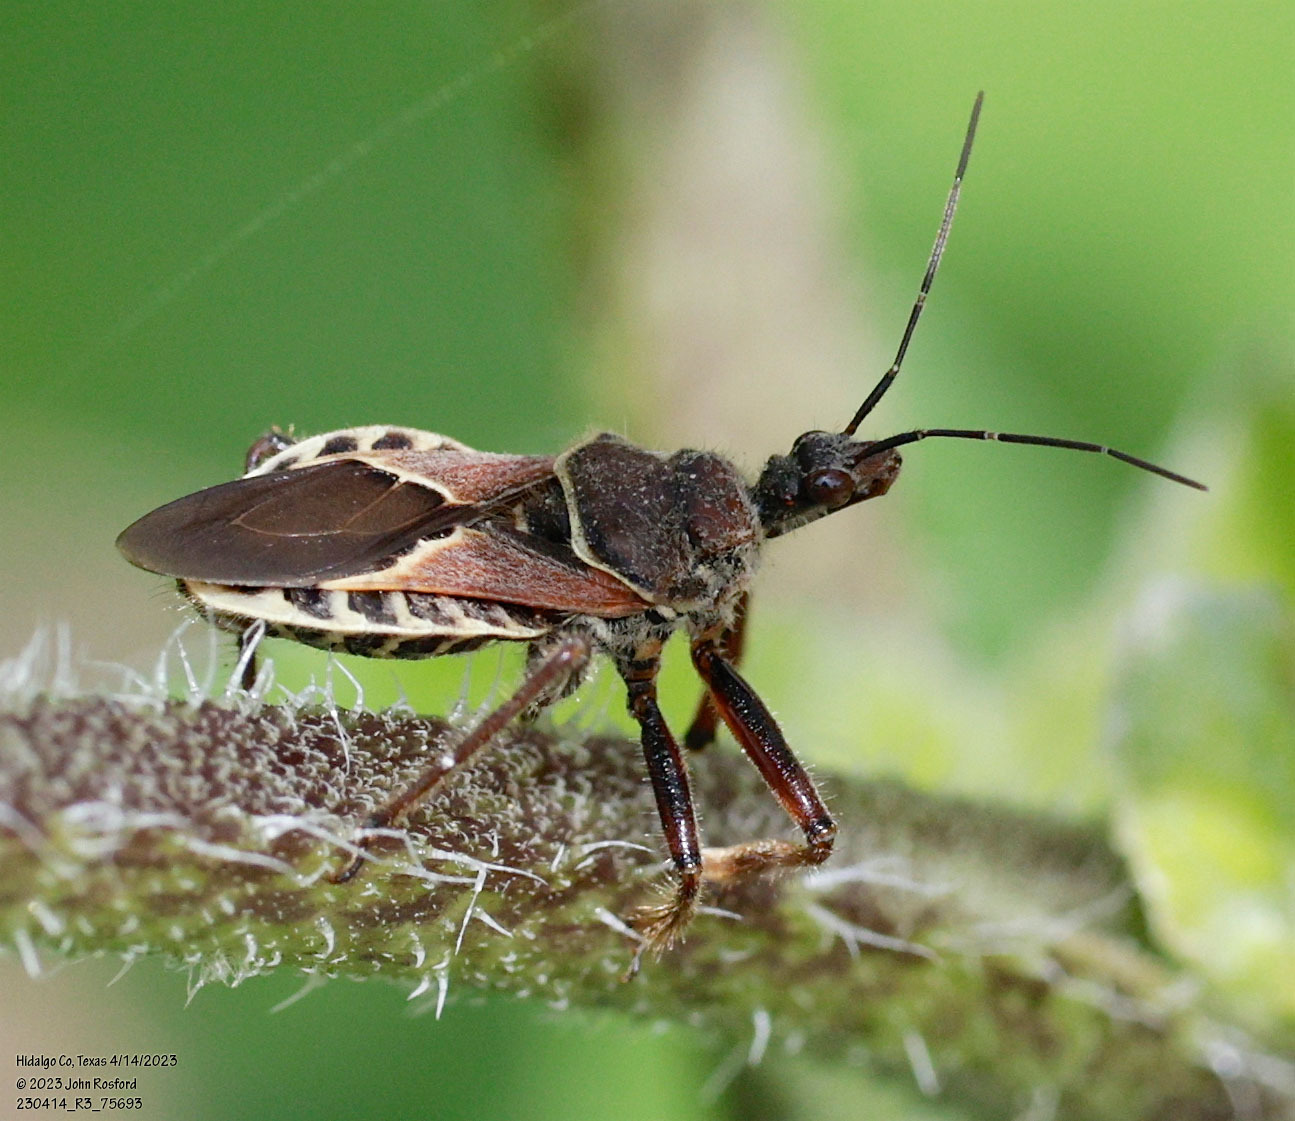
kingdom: Animalia
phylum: Arthropoda
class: Insecta
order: Hemiptera
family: Reduviidae
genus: Apiomerus
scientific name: Apiomerus spissipes
